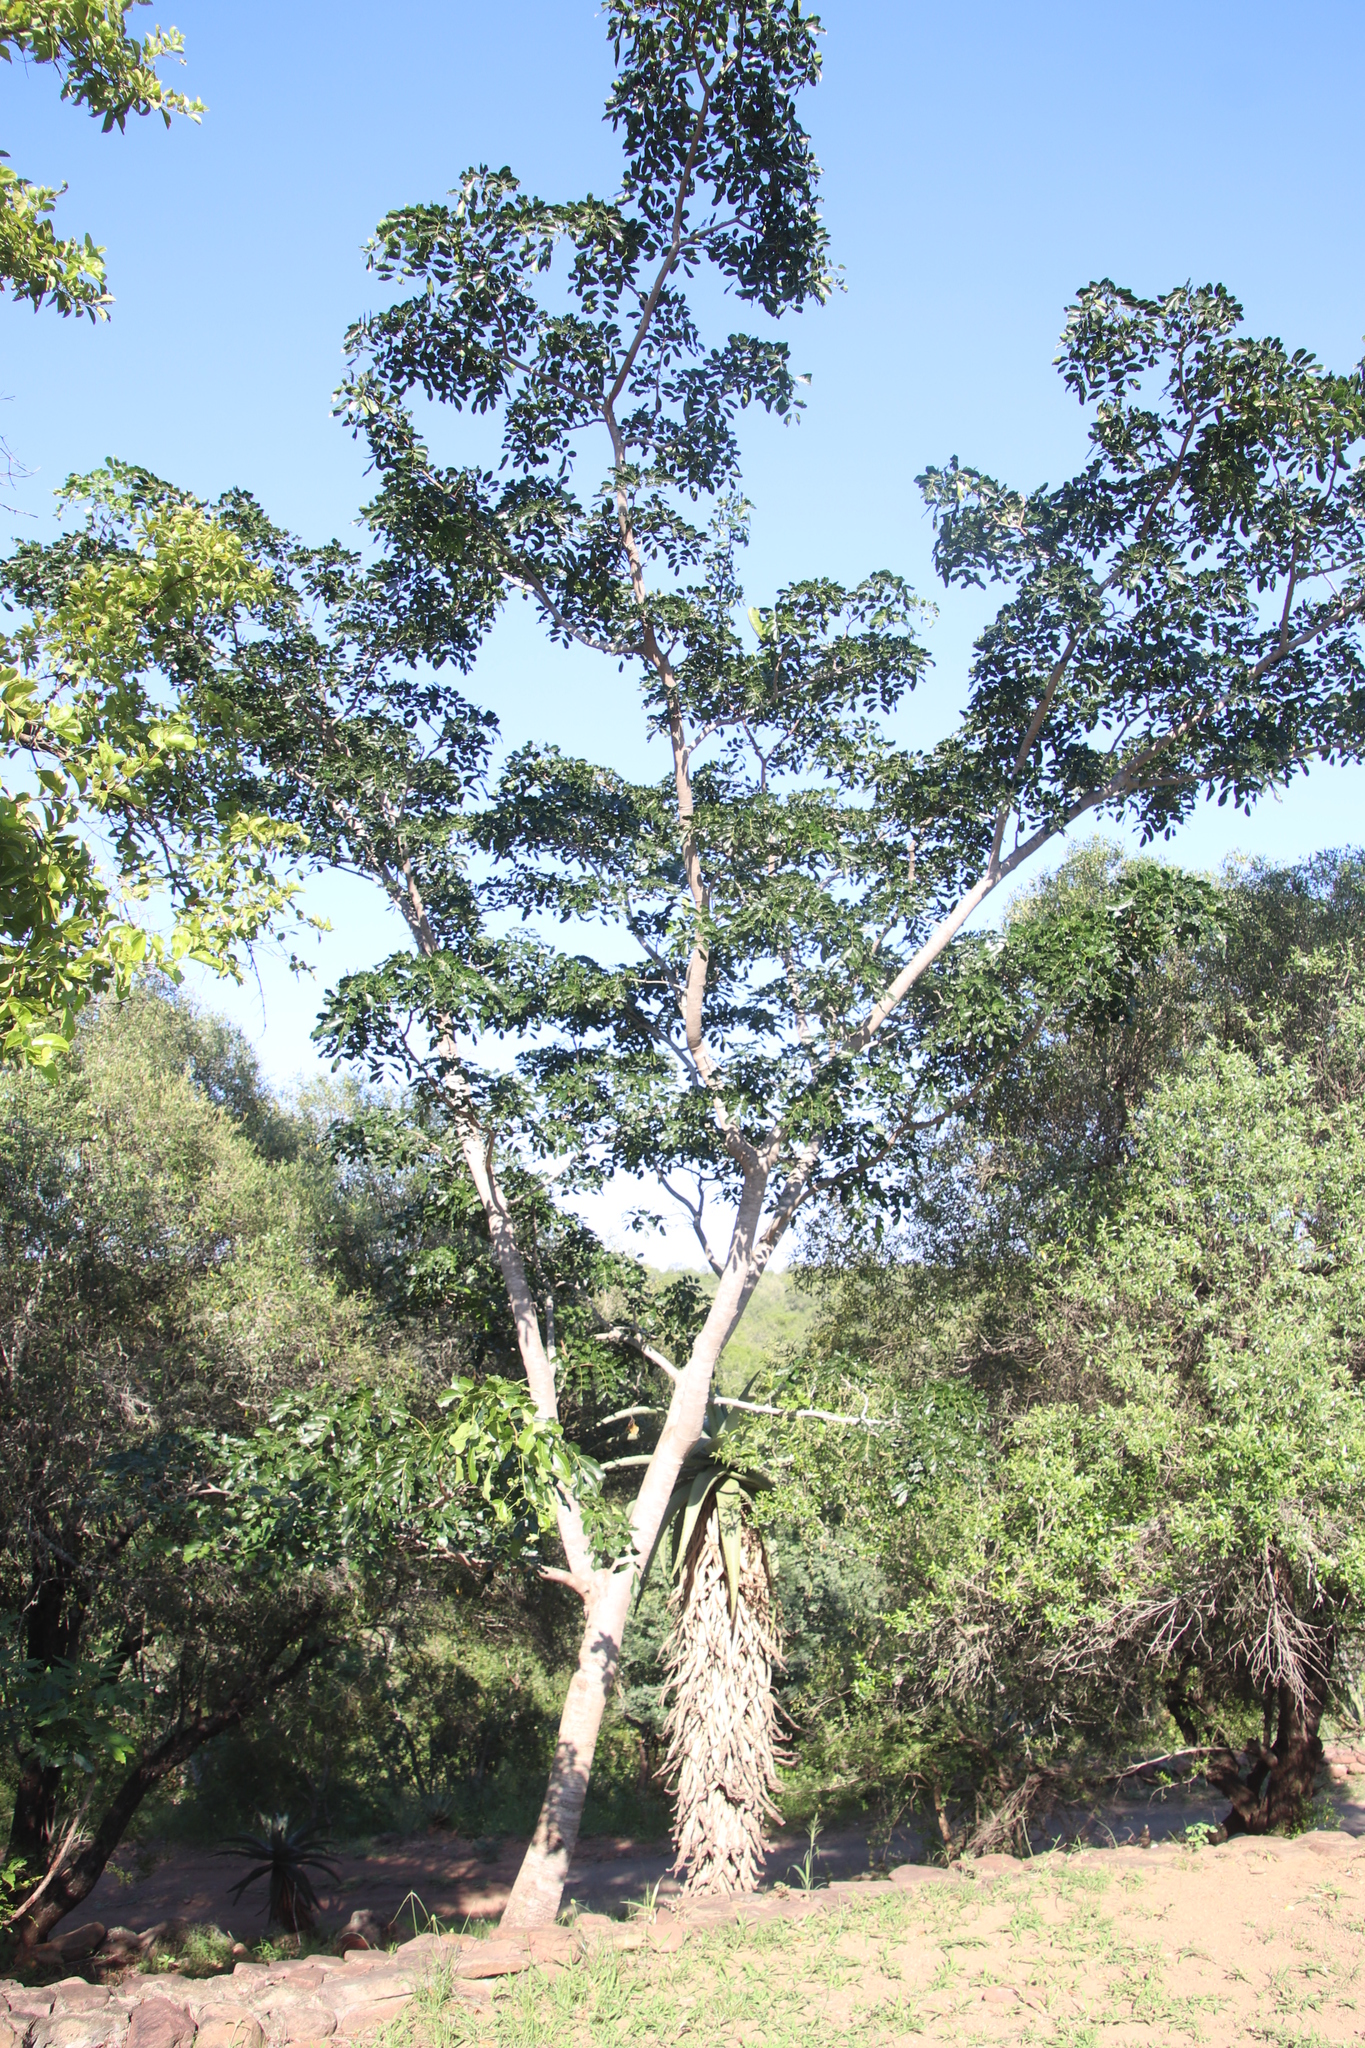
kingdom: Plantae
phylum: Tracheophyta
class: Magnoliopsida
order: Fabales
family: Fabaceae
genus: Afzelia
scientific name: Afzelia quanzensis
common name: Pod mahogany
